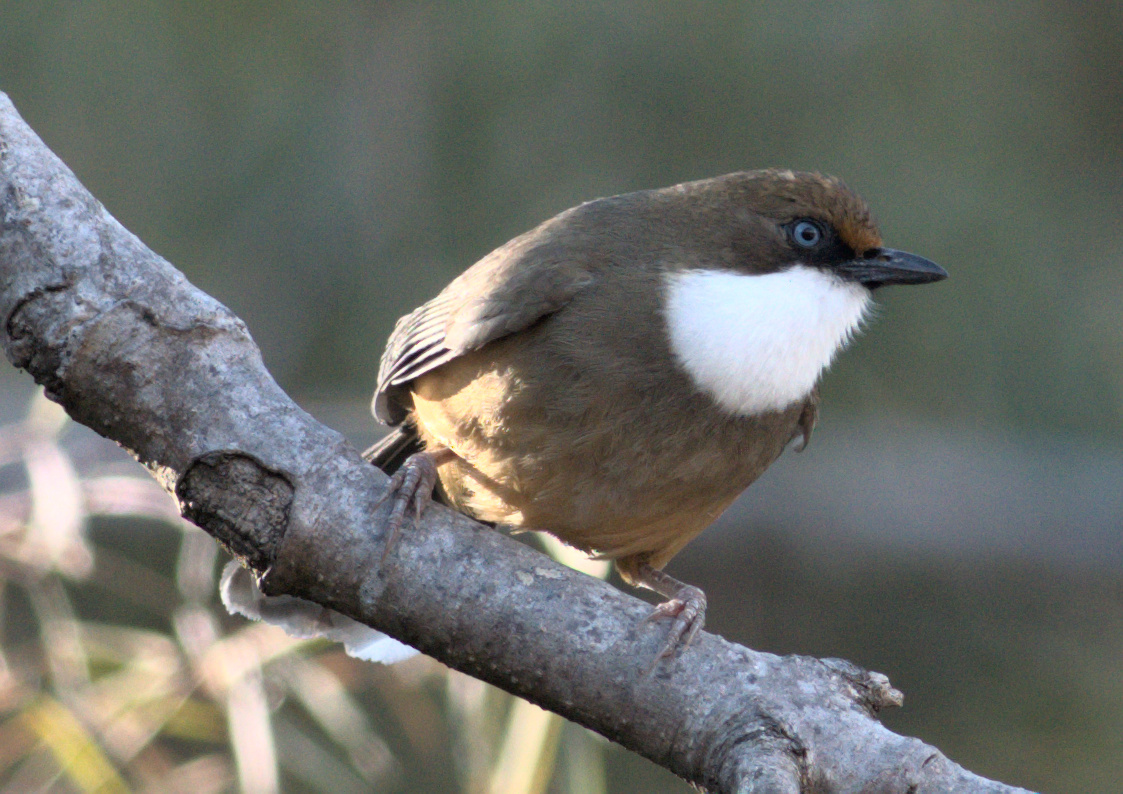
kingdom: Animalia
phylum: Chordata
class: Aves
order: Passeriformes
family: Leiothrichidae
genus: Garrulax
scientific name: Garrulax albogularis
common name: White-throated laughingthrush
